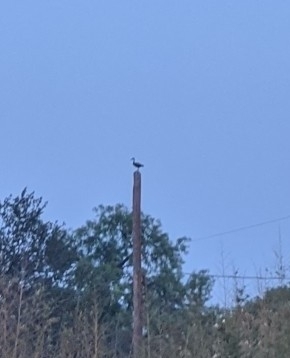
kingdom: Animalia
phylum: Chordata
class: Aves
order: Anseriformes
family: Anatidae
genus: Dendrocygna
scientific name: Dendrocygna autumnalis
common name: Black-bellied whistling duck
